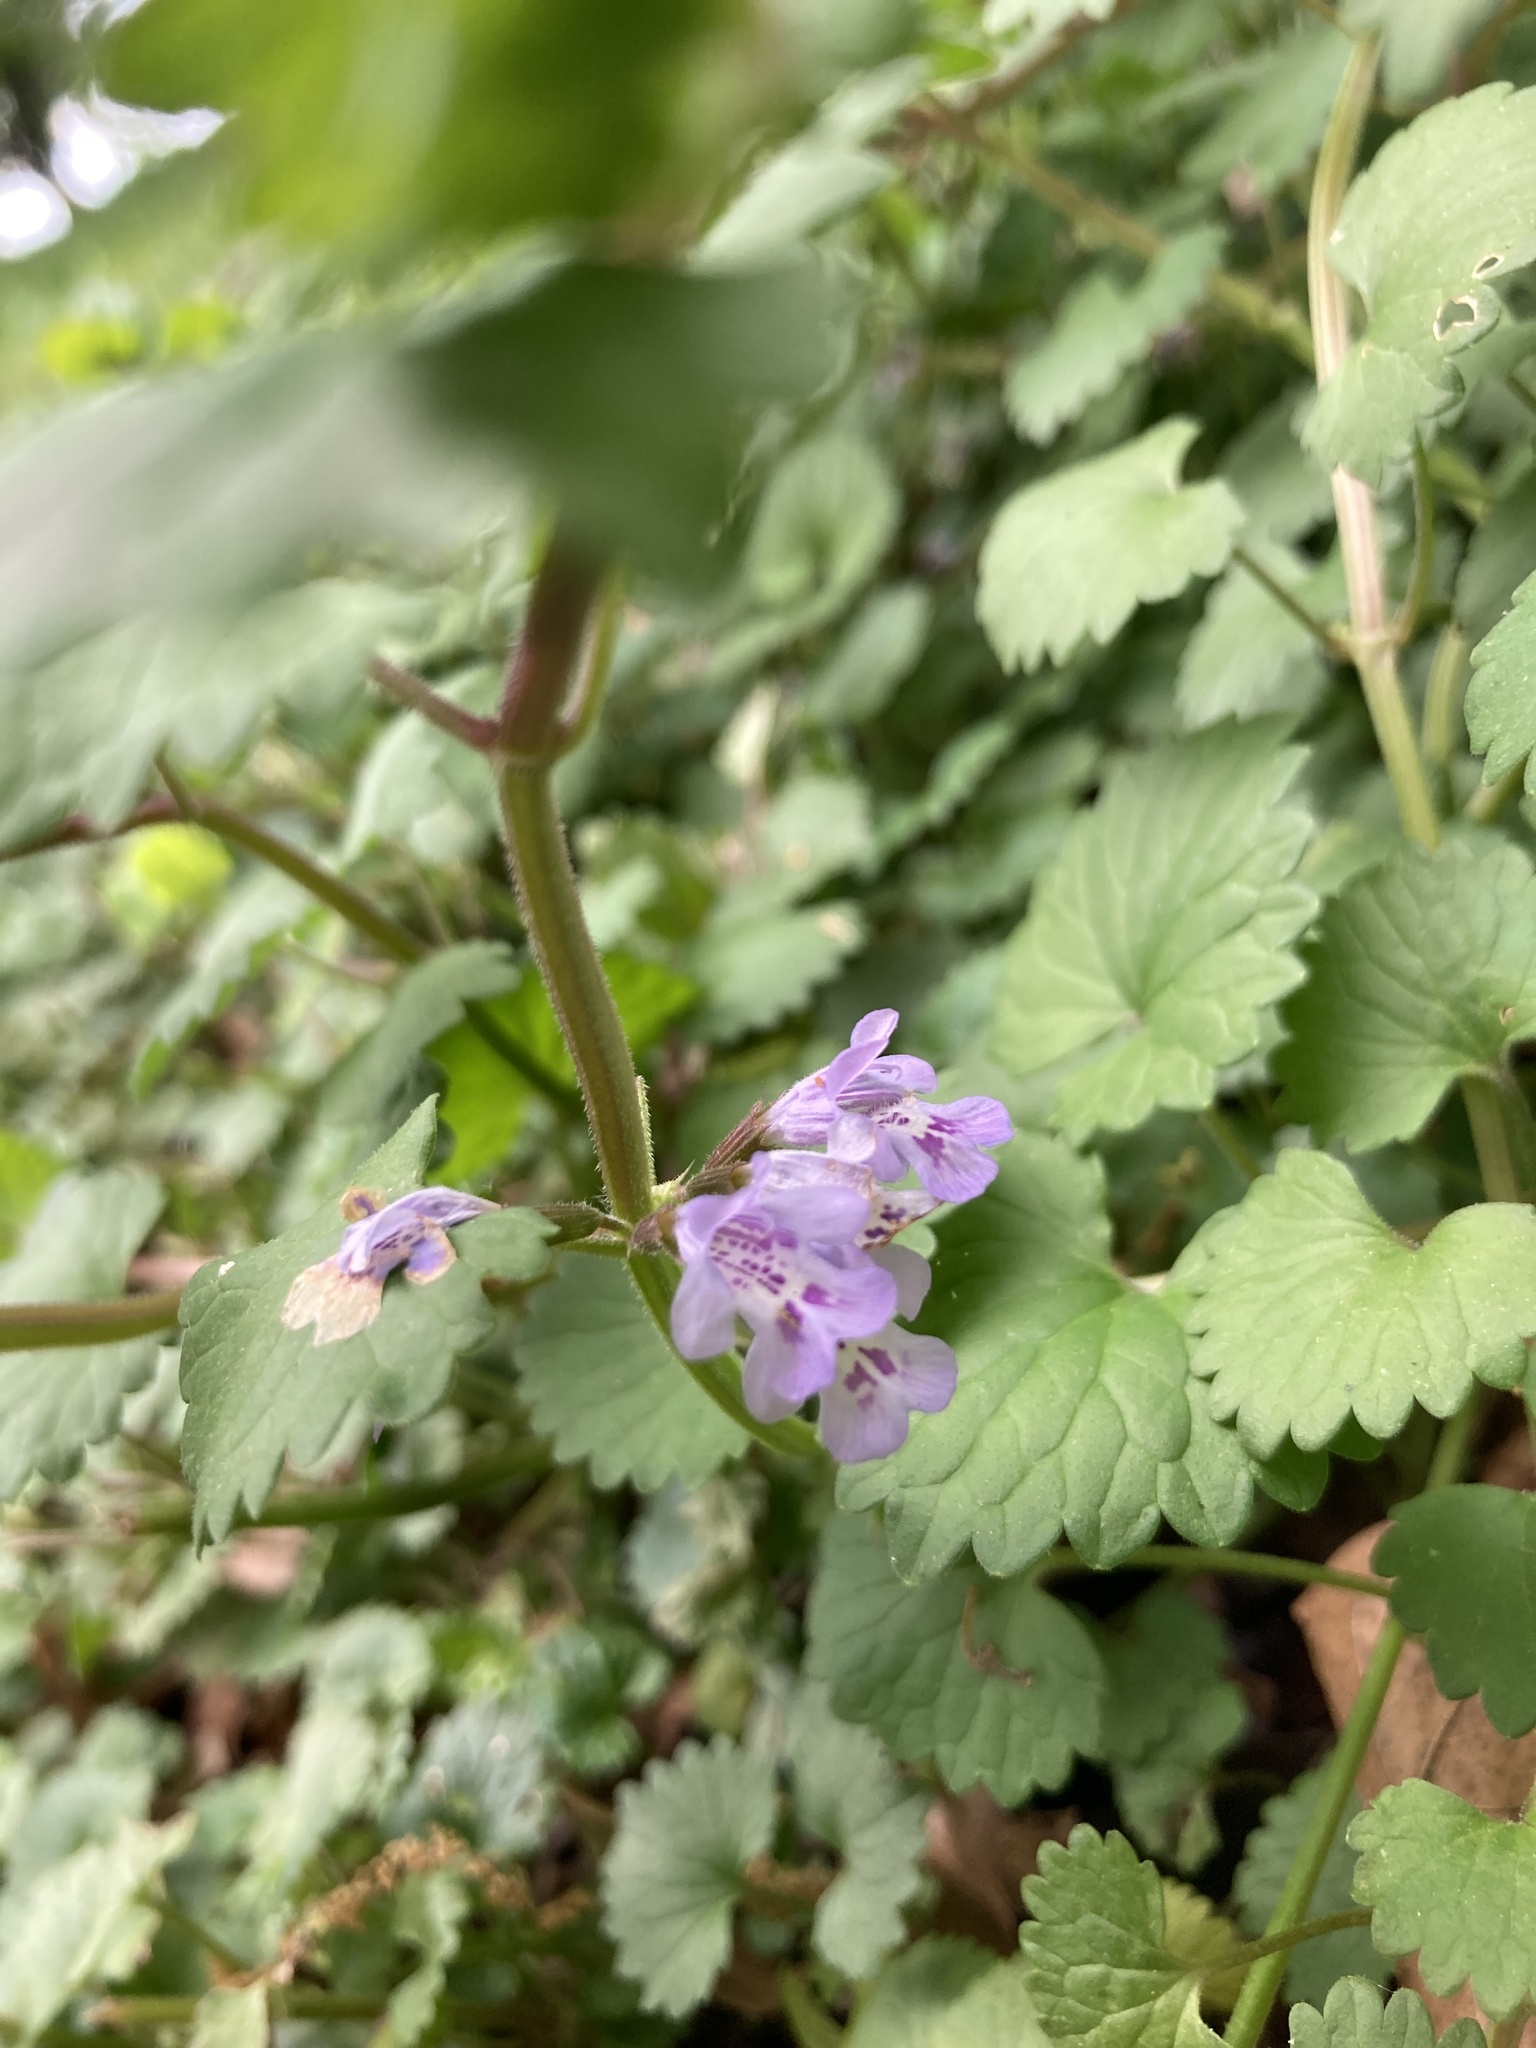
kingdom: Plantae
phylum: Tracheophyta
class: Magnoliopsida
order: Lamiales
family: Lamiaceae
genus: Glechoma
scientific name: Glechoma hederacea
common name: Ground ivy
